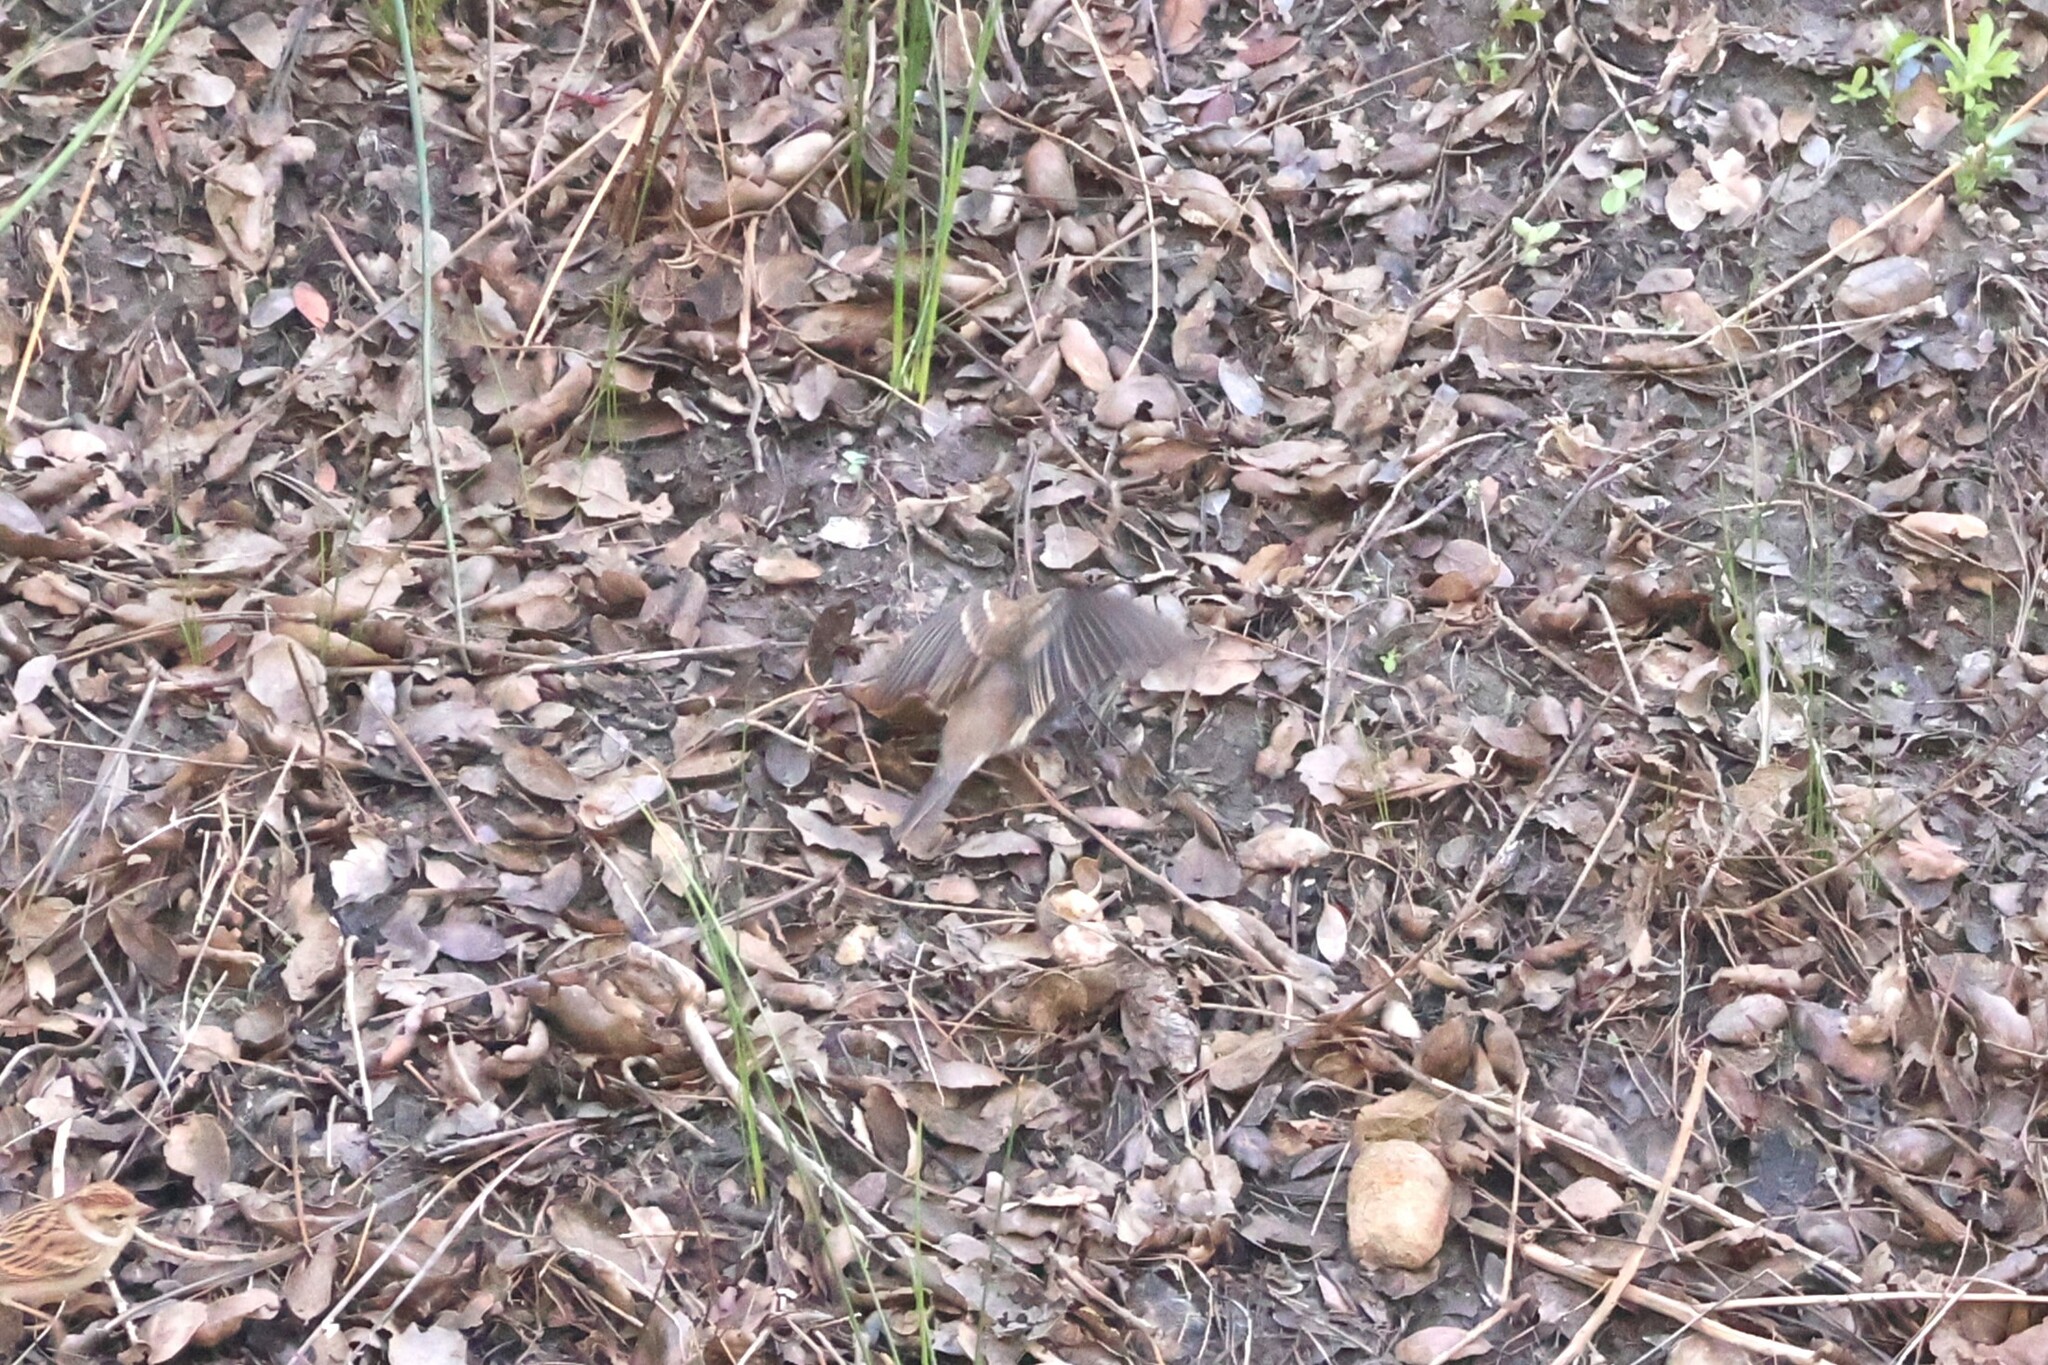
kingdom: Animalia
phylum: Chordata
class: Aves
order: Passeriformes
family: Cardinalidae
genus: Passerina
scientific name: Passerina amoena
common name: Lazuli bunting
